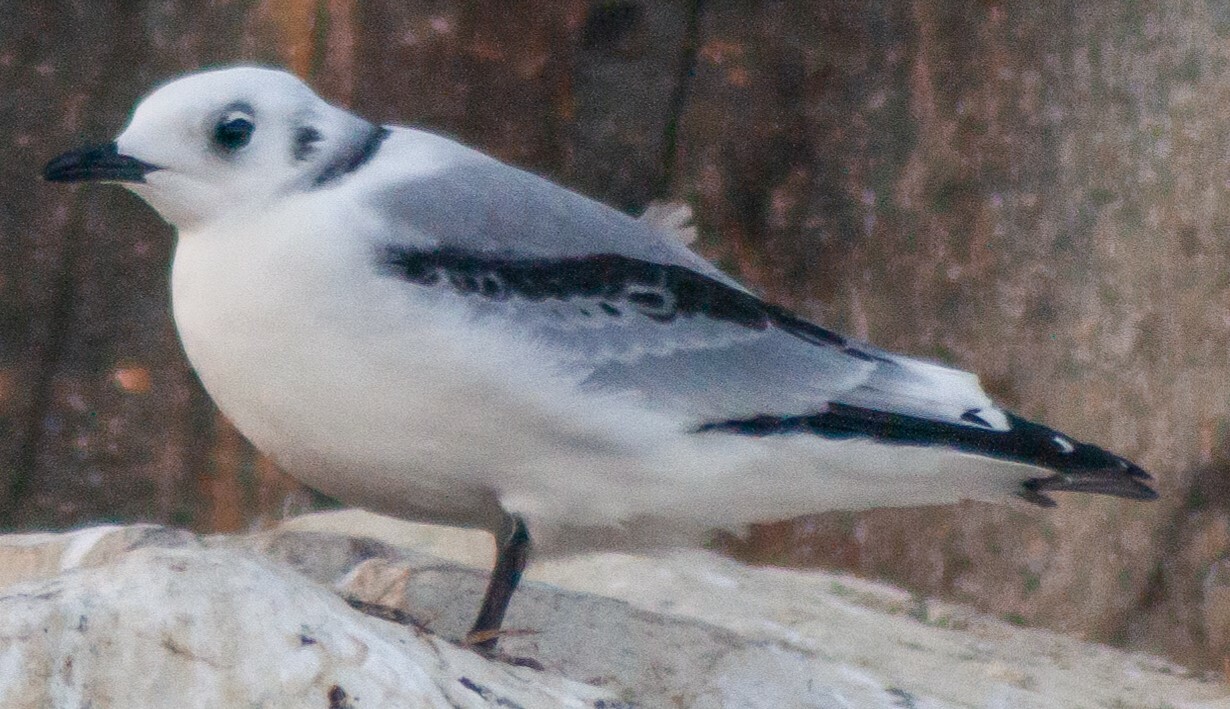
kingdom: Animalia
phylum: Chordata
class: Aves
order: Charadriiformes
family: Laridae
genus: Rissa
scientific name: Rissa tridactyla
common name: Black-legged kittiwake
